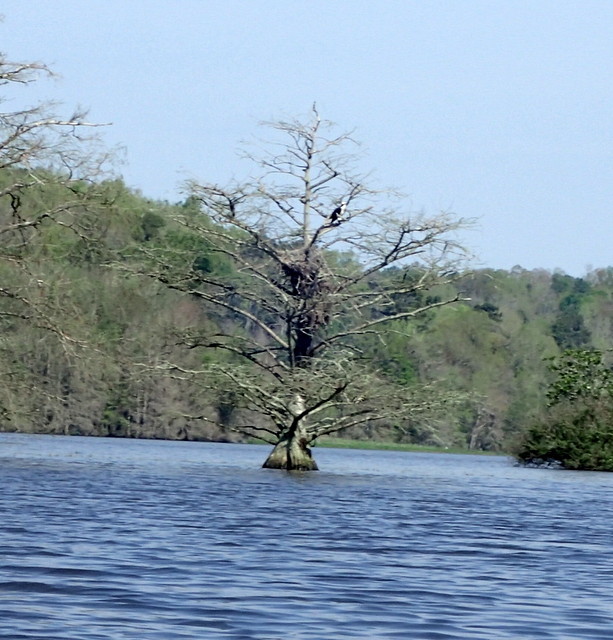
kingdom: Animalia
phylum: Chordata
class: Aves
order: Accipitriformes
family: Pandionidae
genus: Pandion
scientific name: Pandion haliaetus
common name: Osprey
